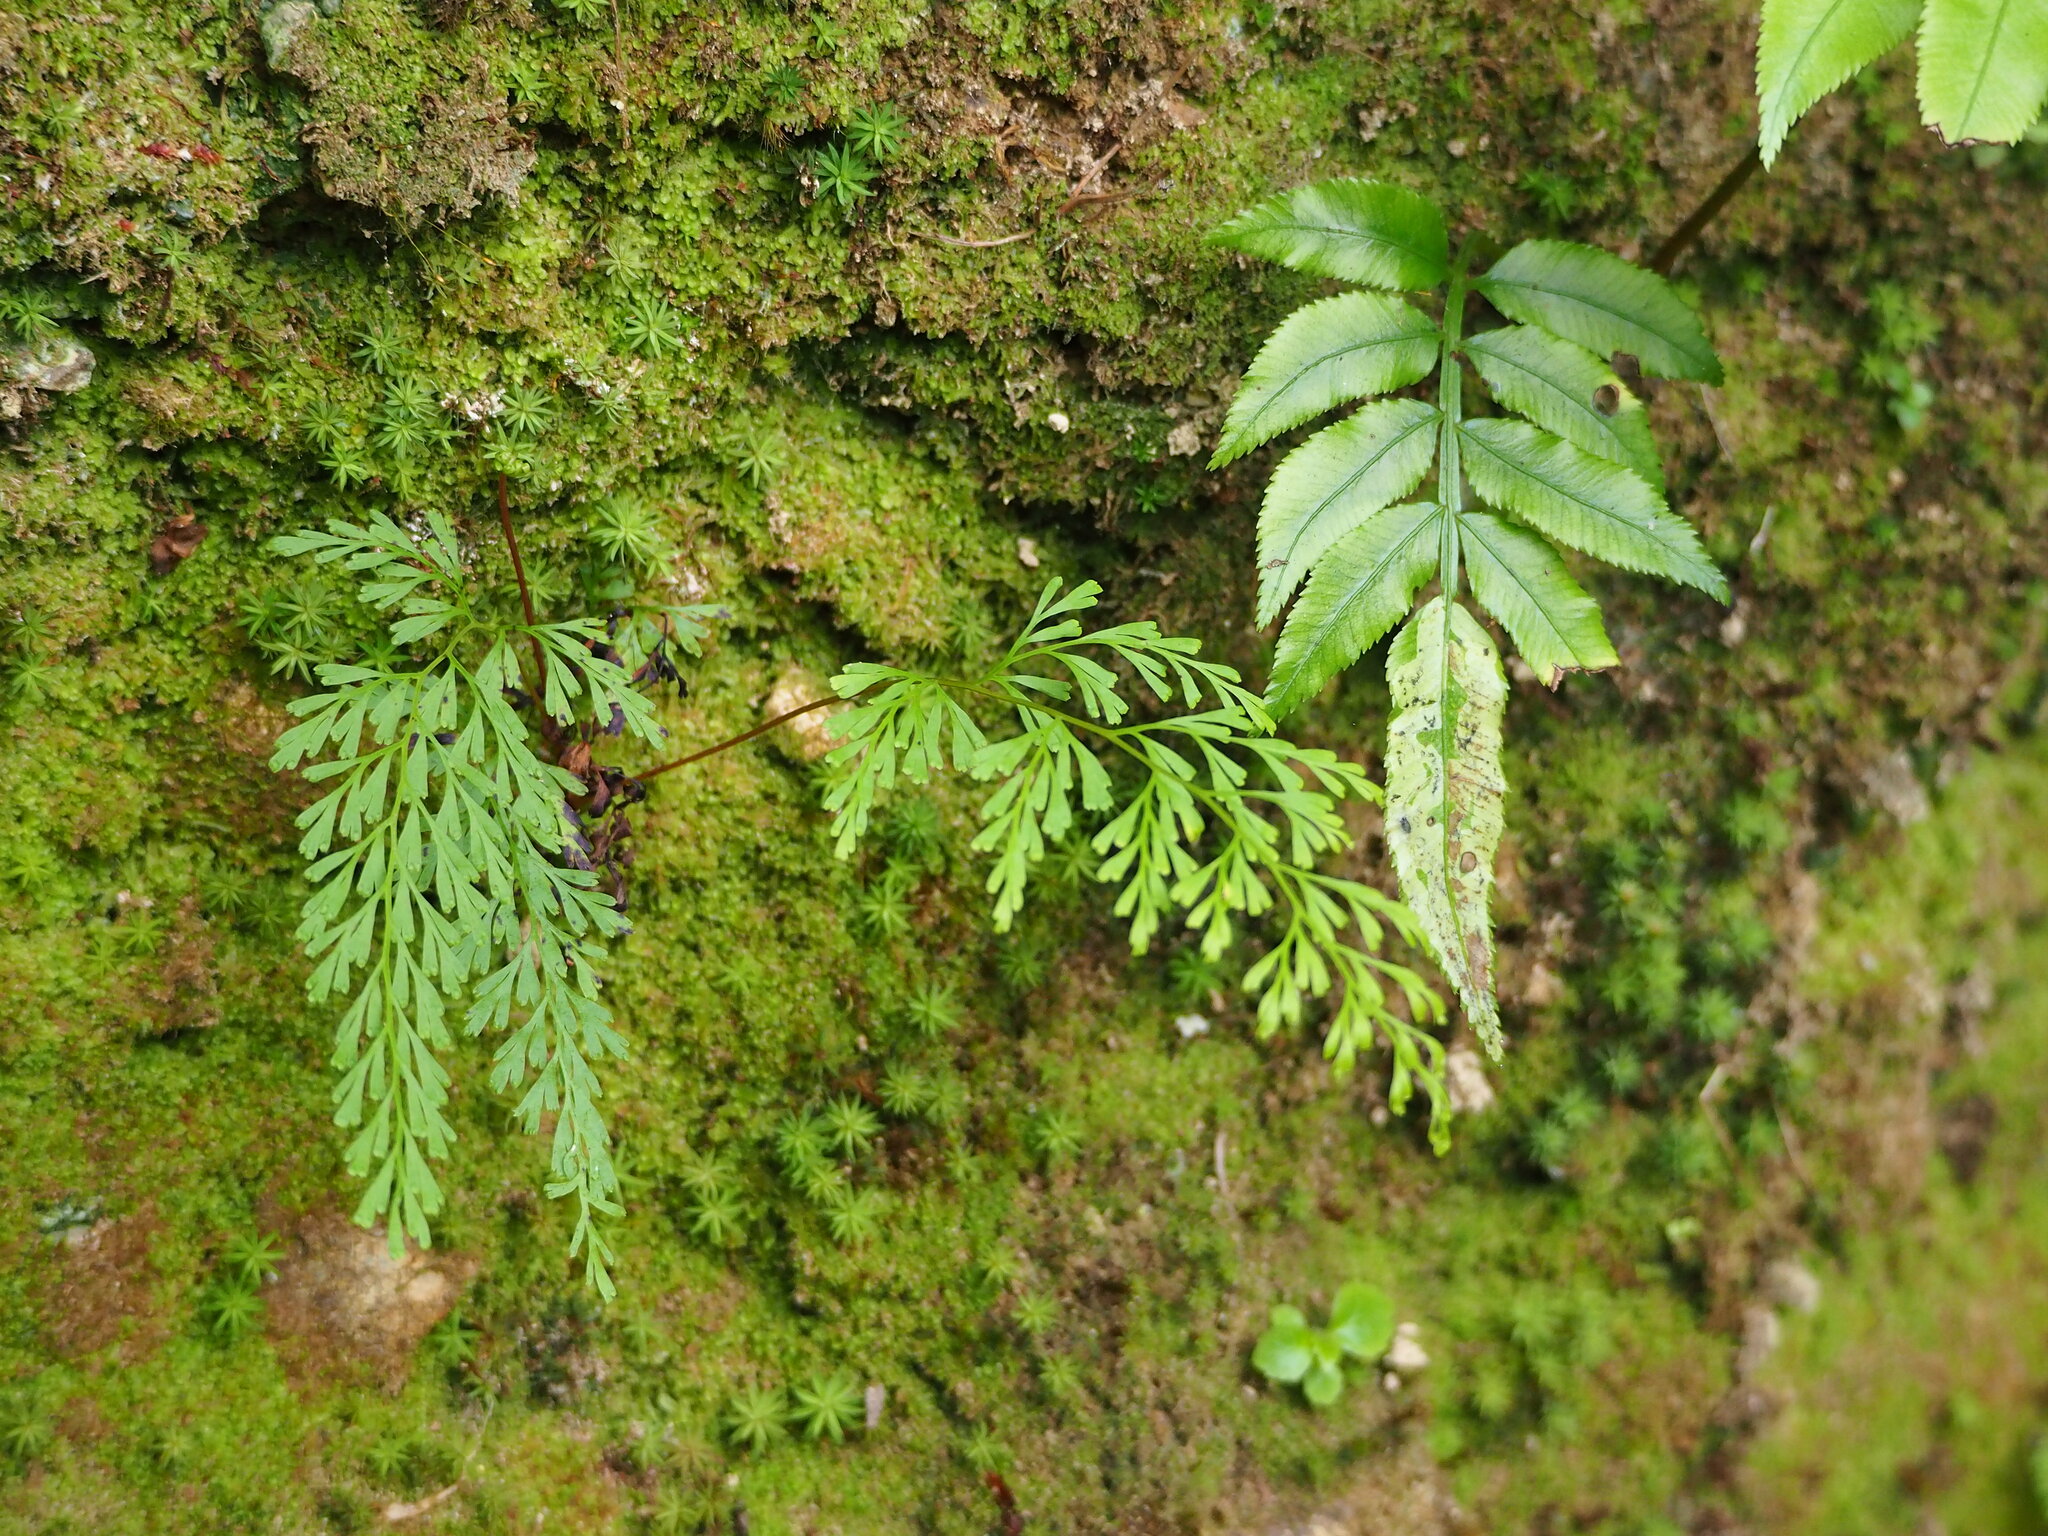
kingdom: Plantae
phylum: Tracheophyta
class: Polypodiopsida
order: Polypodiales
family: Lindsaeaceae
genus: Odontosoria
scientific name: Odontosoria chinensis
